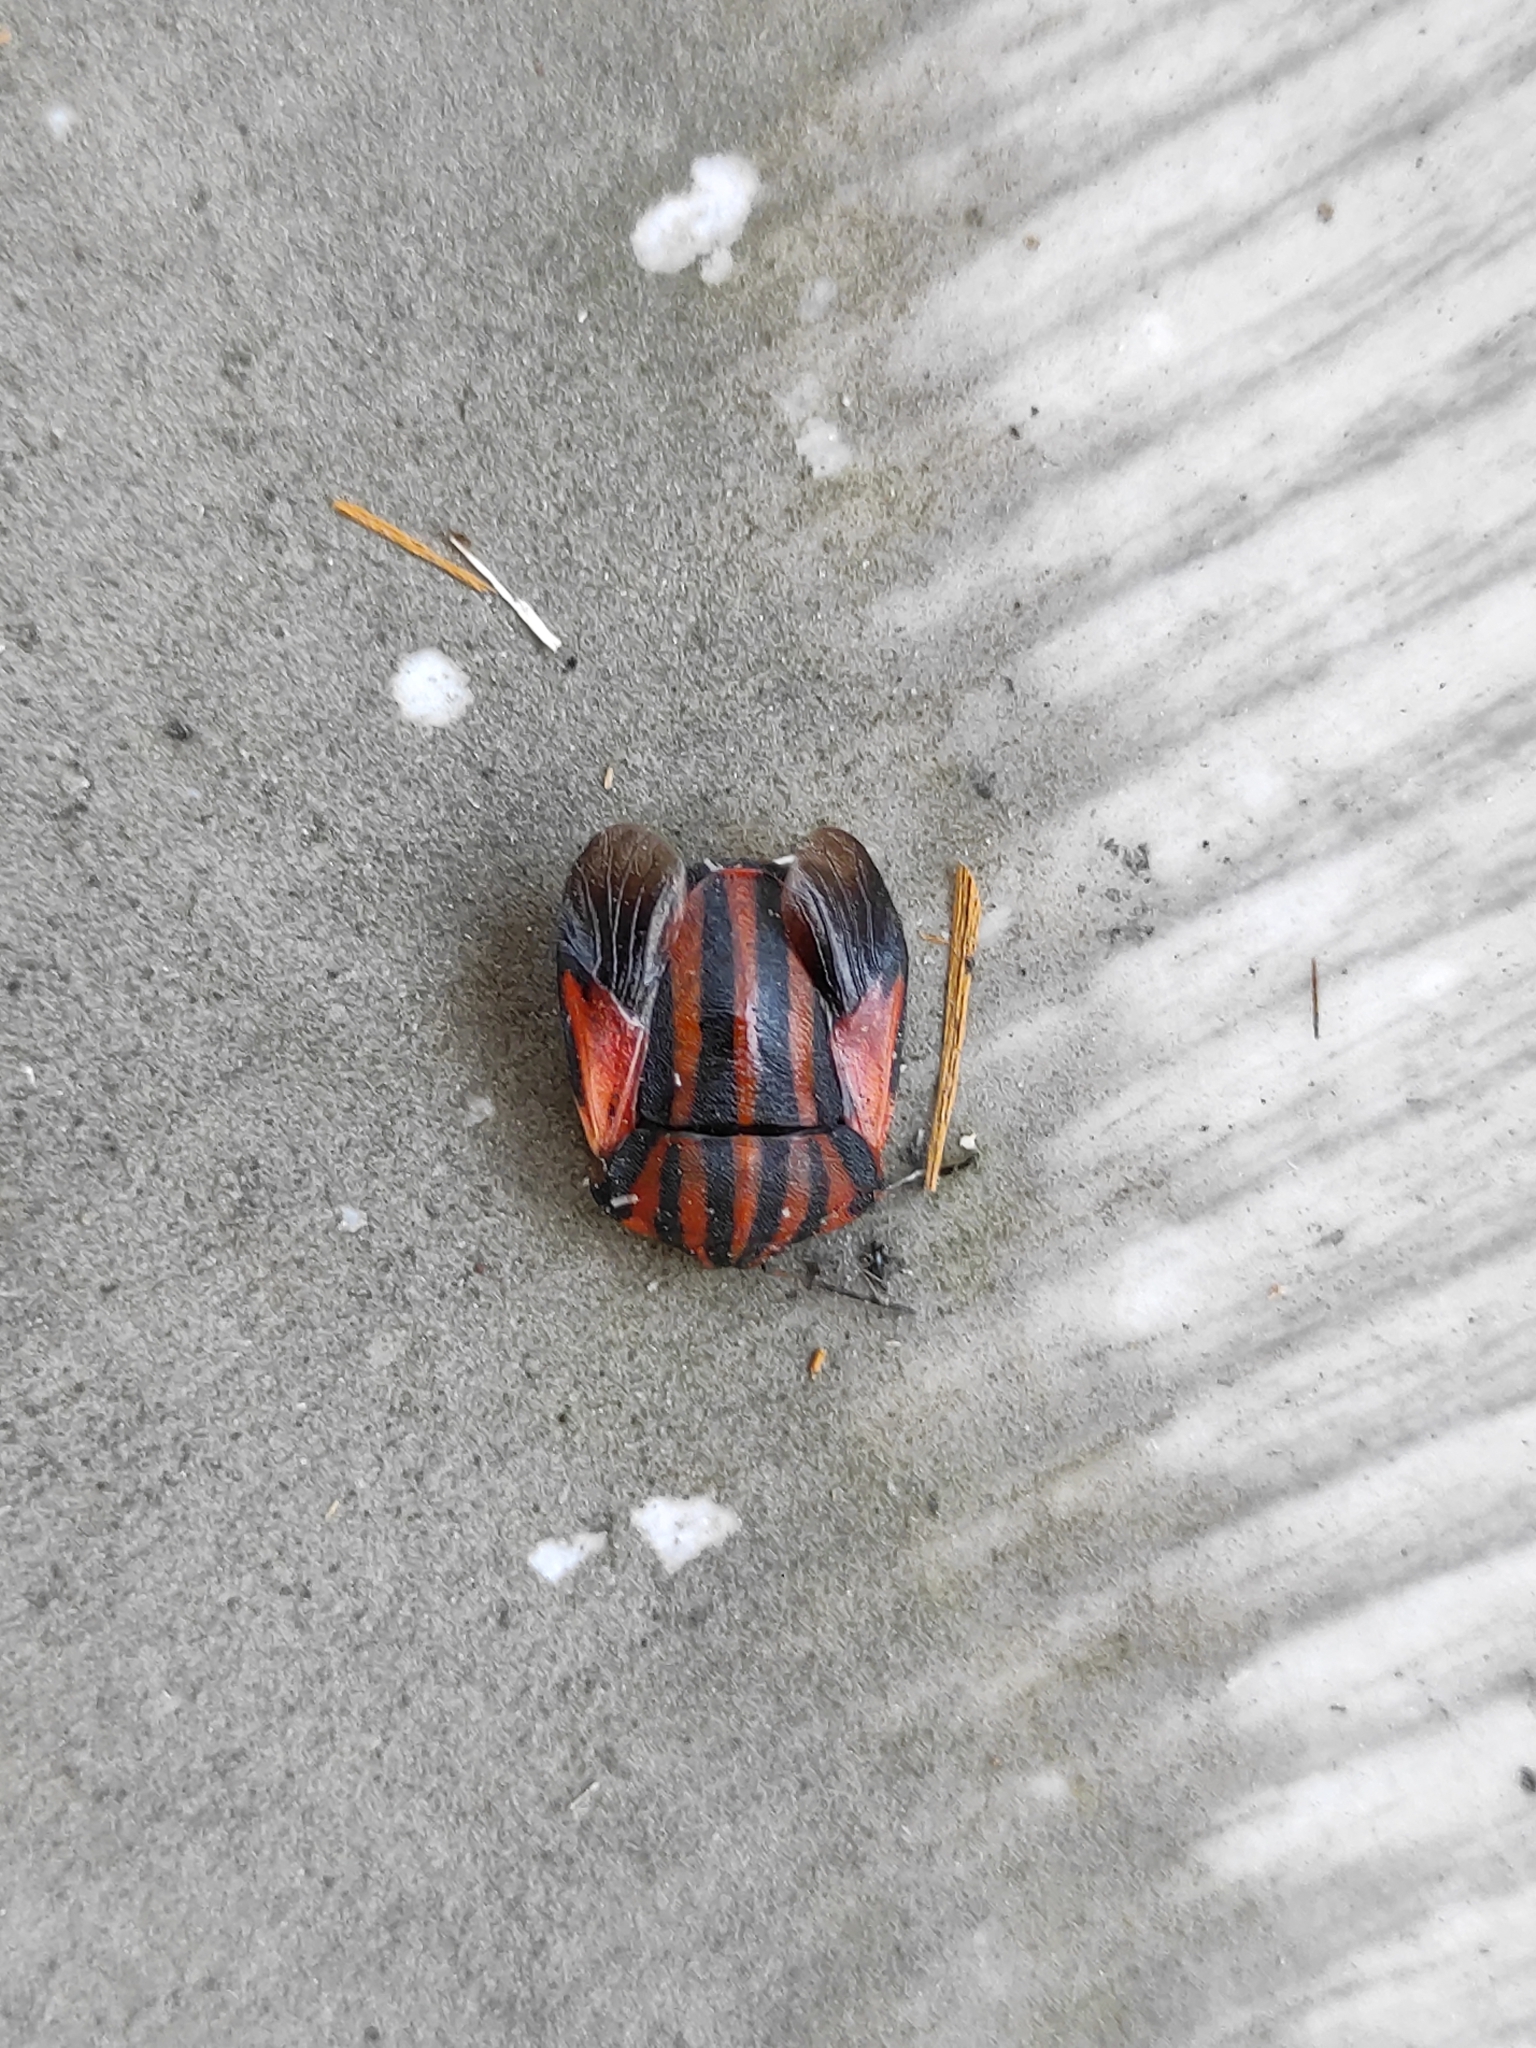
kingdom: Animalia
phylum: Arthropoda
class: Insecta
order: Hemiptera
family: Pentatomidae
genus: Graphosoma
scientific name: Graphosoma italicum
